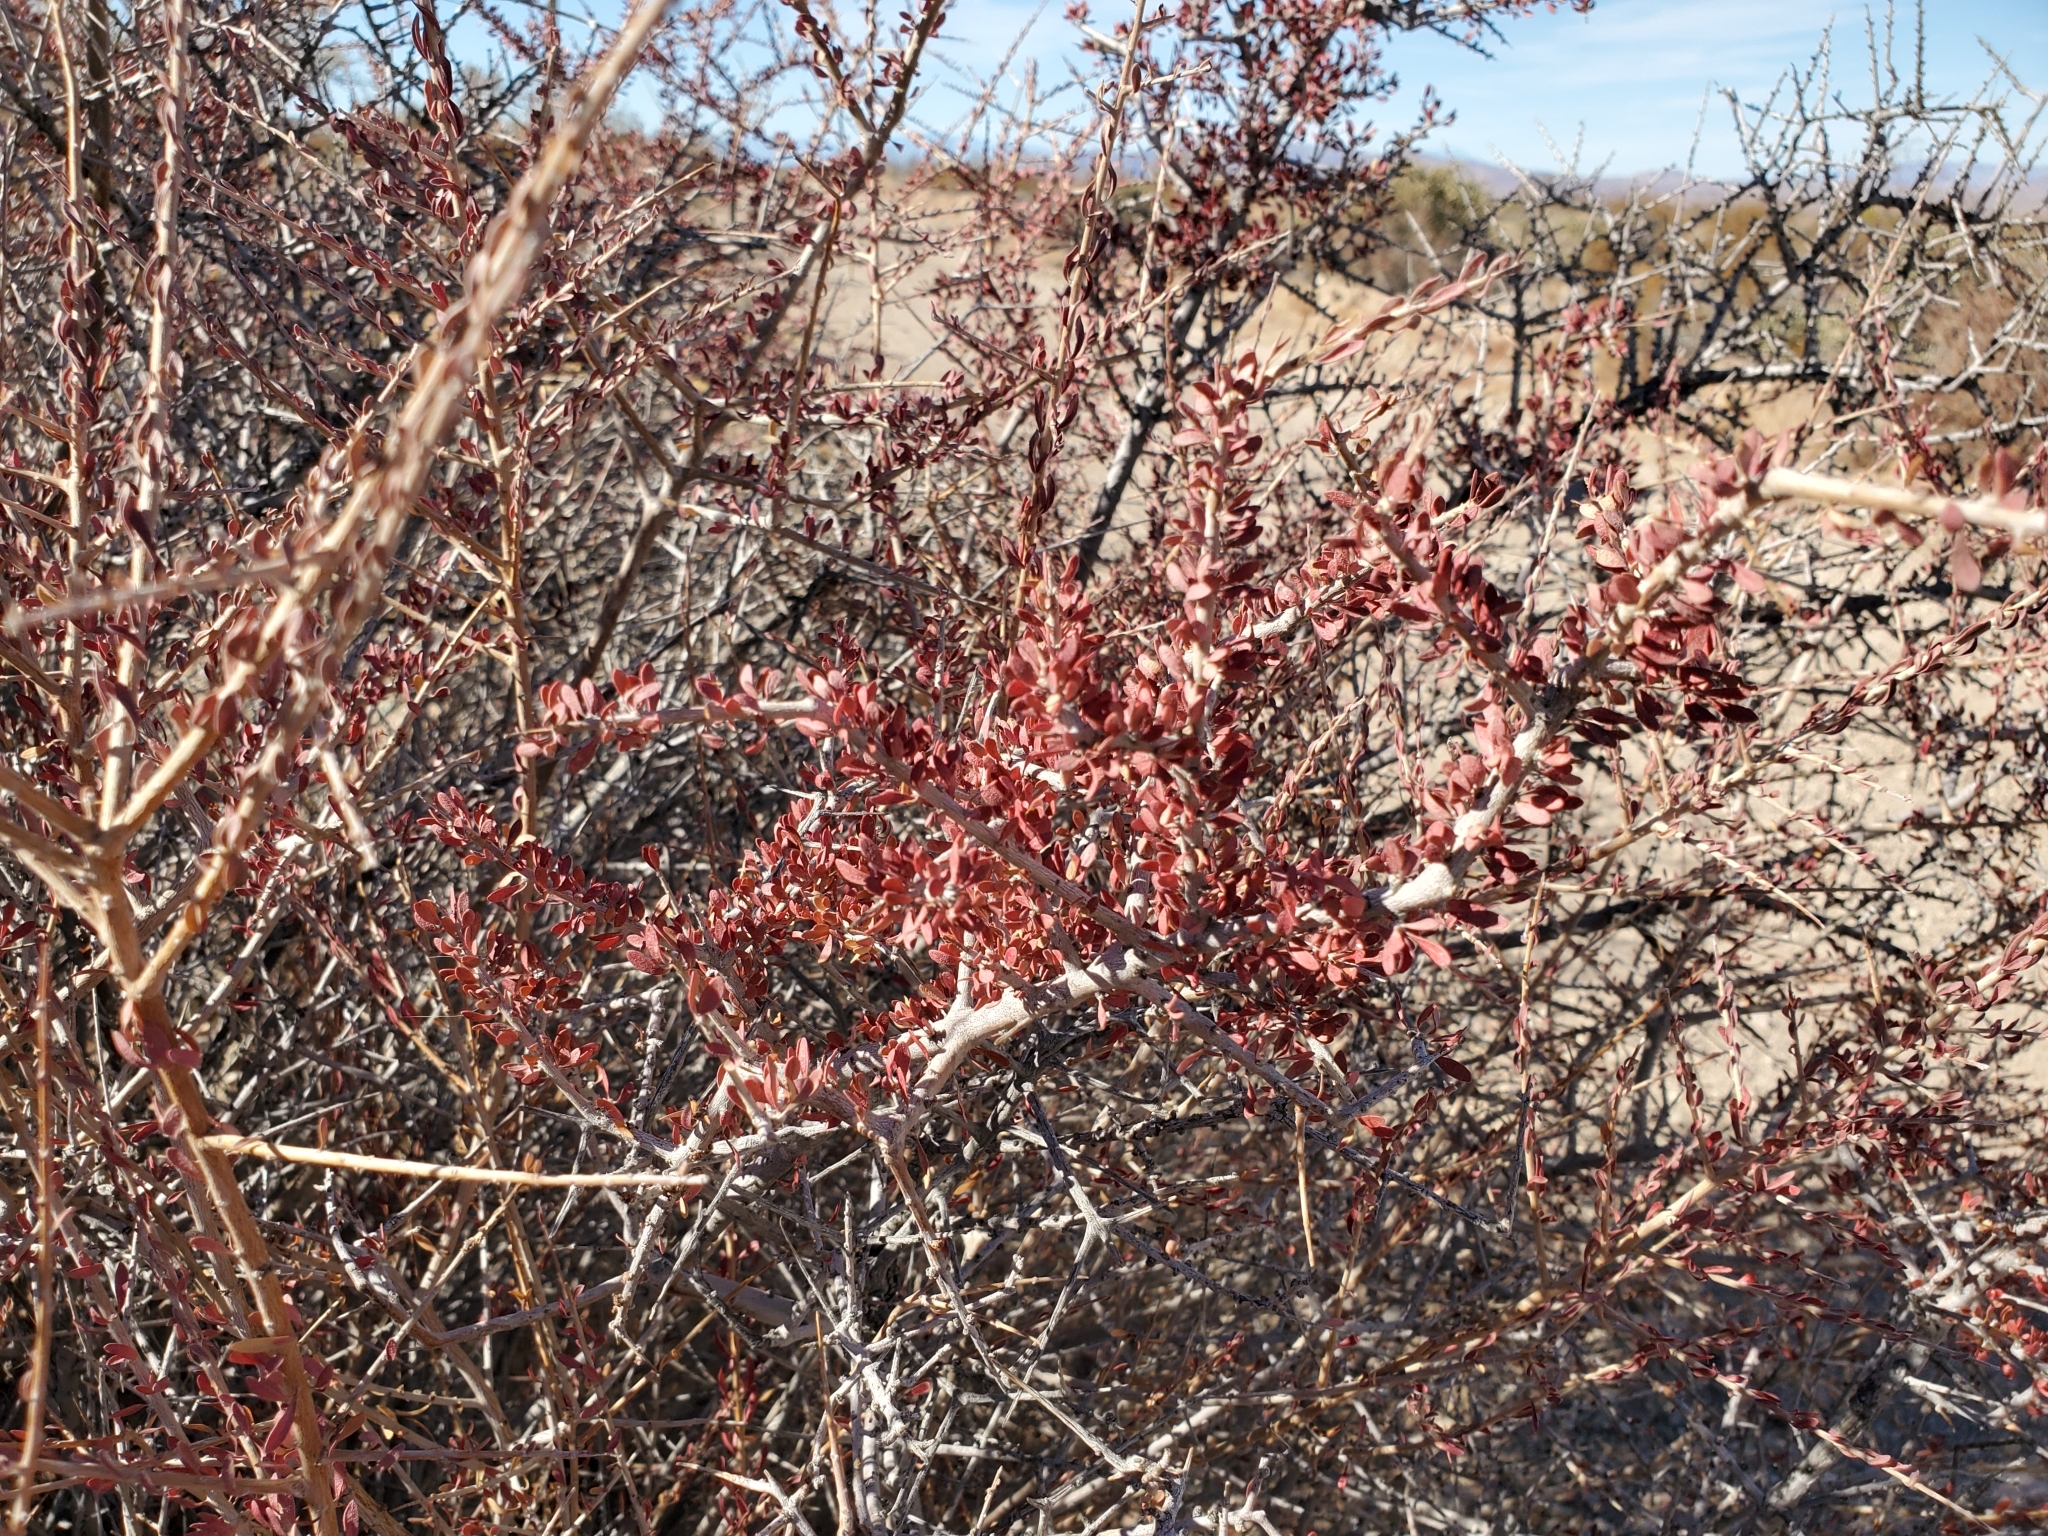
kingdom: Plantae
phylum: Tracheophyta
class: Magnoliopsida
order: Malpighiales
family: Picrodendraceae
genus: Tetracoccus
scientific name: Tetracoccus hallii
